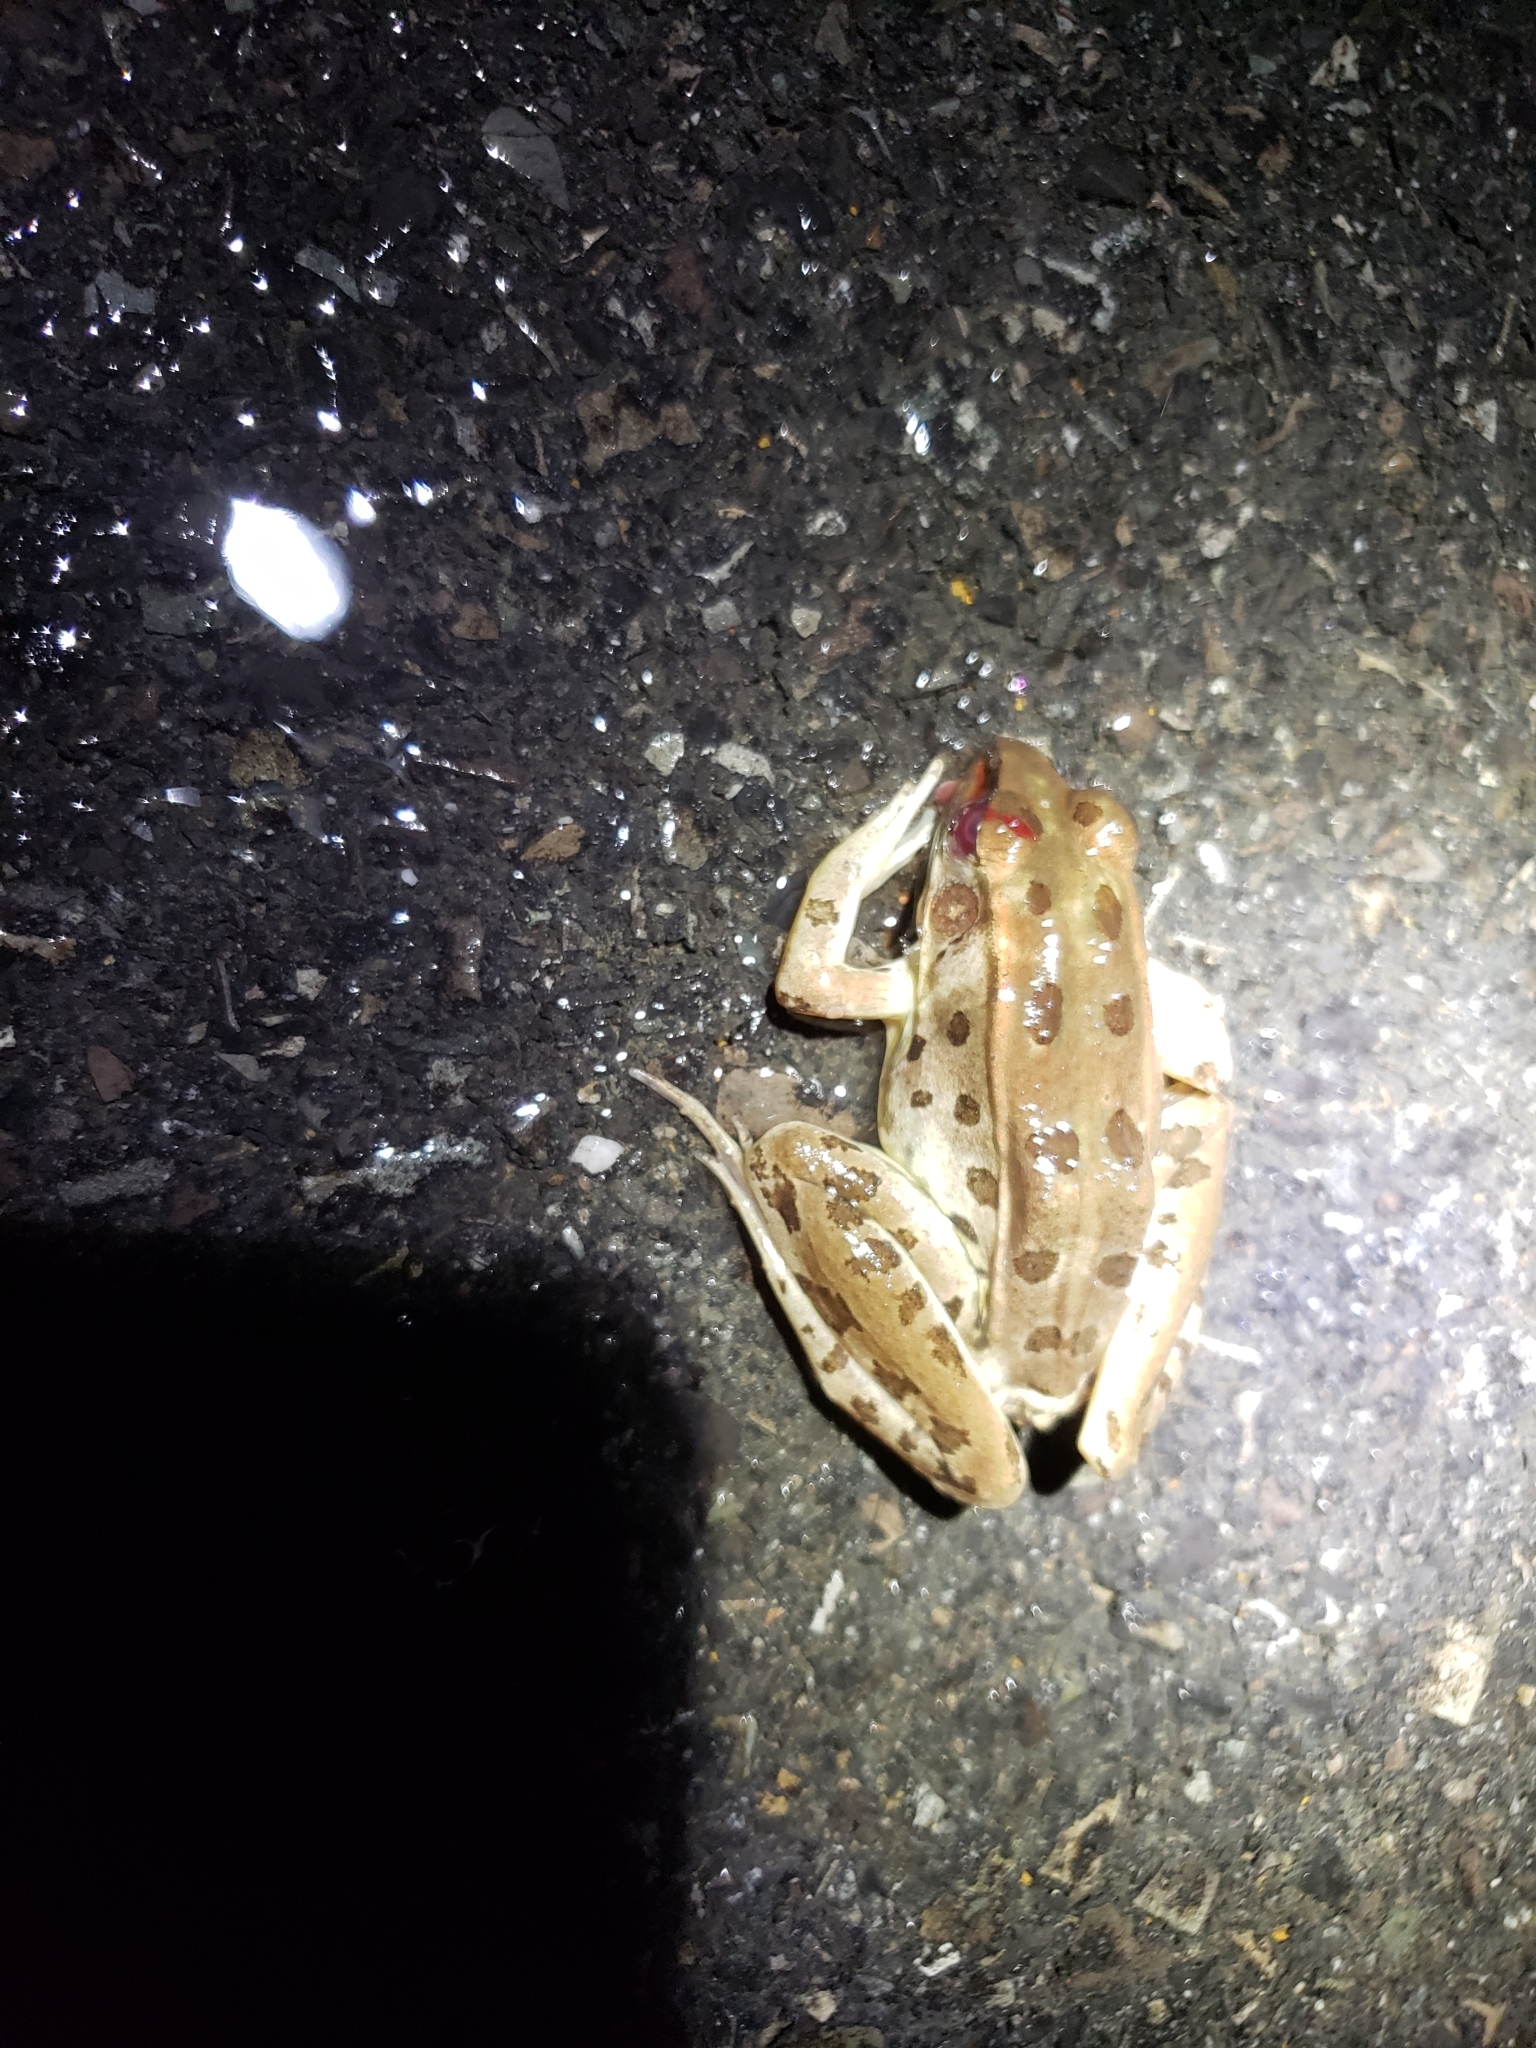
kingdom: Animalia
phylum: Chordata
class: Amphibia
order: Anura
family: Ranidae
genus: Lithobates
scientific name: Lithobates sphenocephalus
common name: Southern leopard frog
